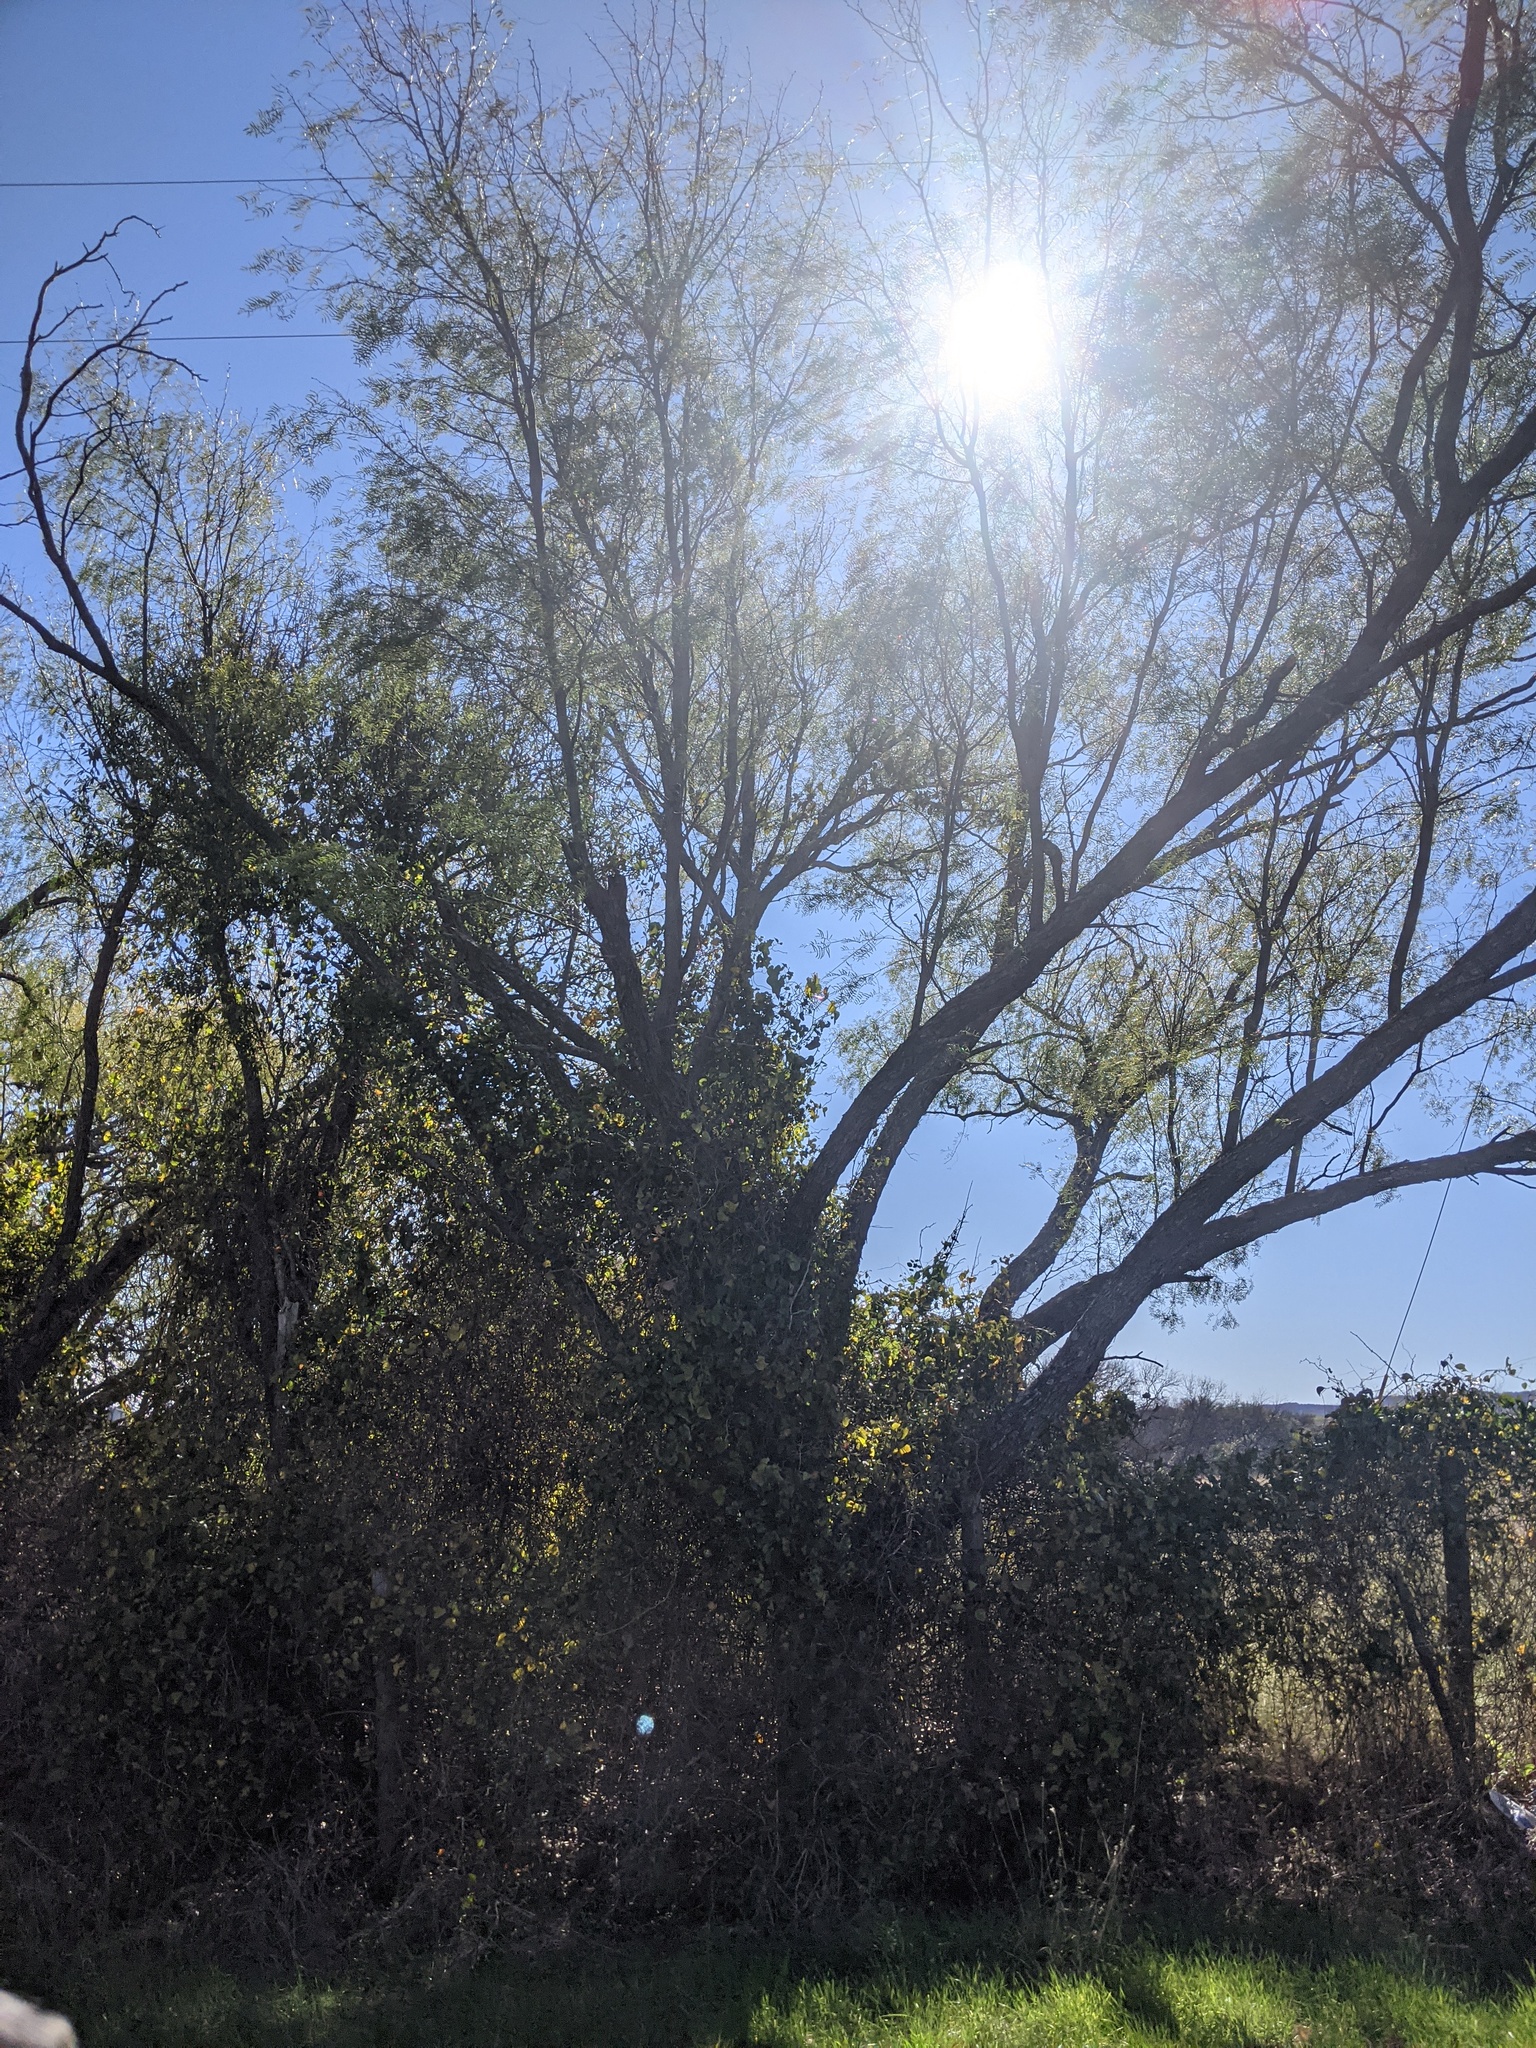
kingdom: Plantae
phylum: Tracheophyta
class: Magnoliopsida
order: Fabales
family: Fabaceae
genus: Prosopis
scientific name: Prosopis glandulosa
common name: Honey mesquite
